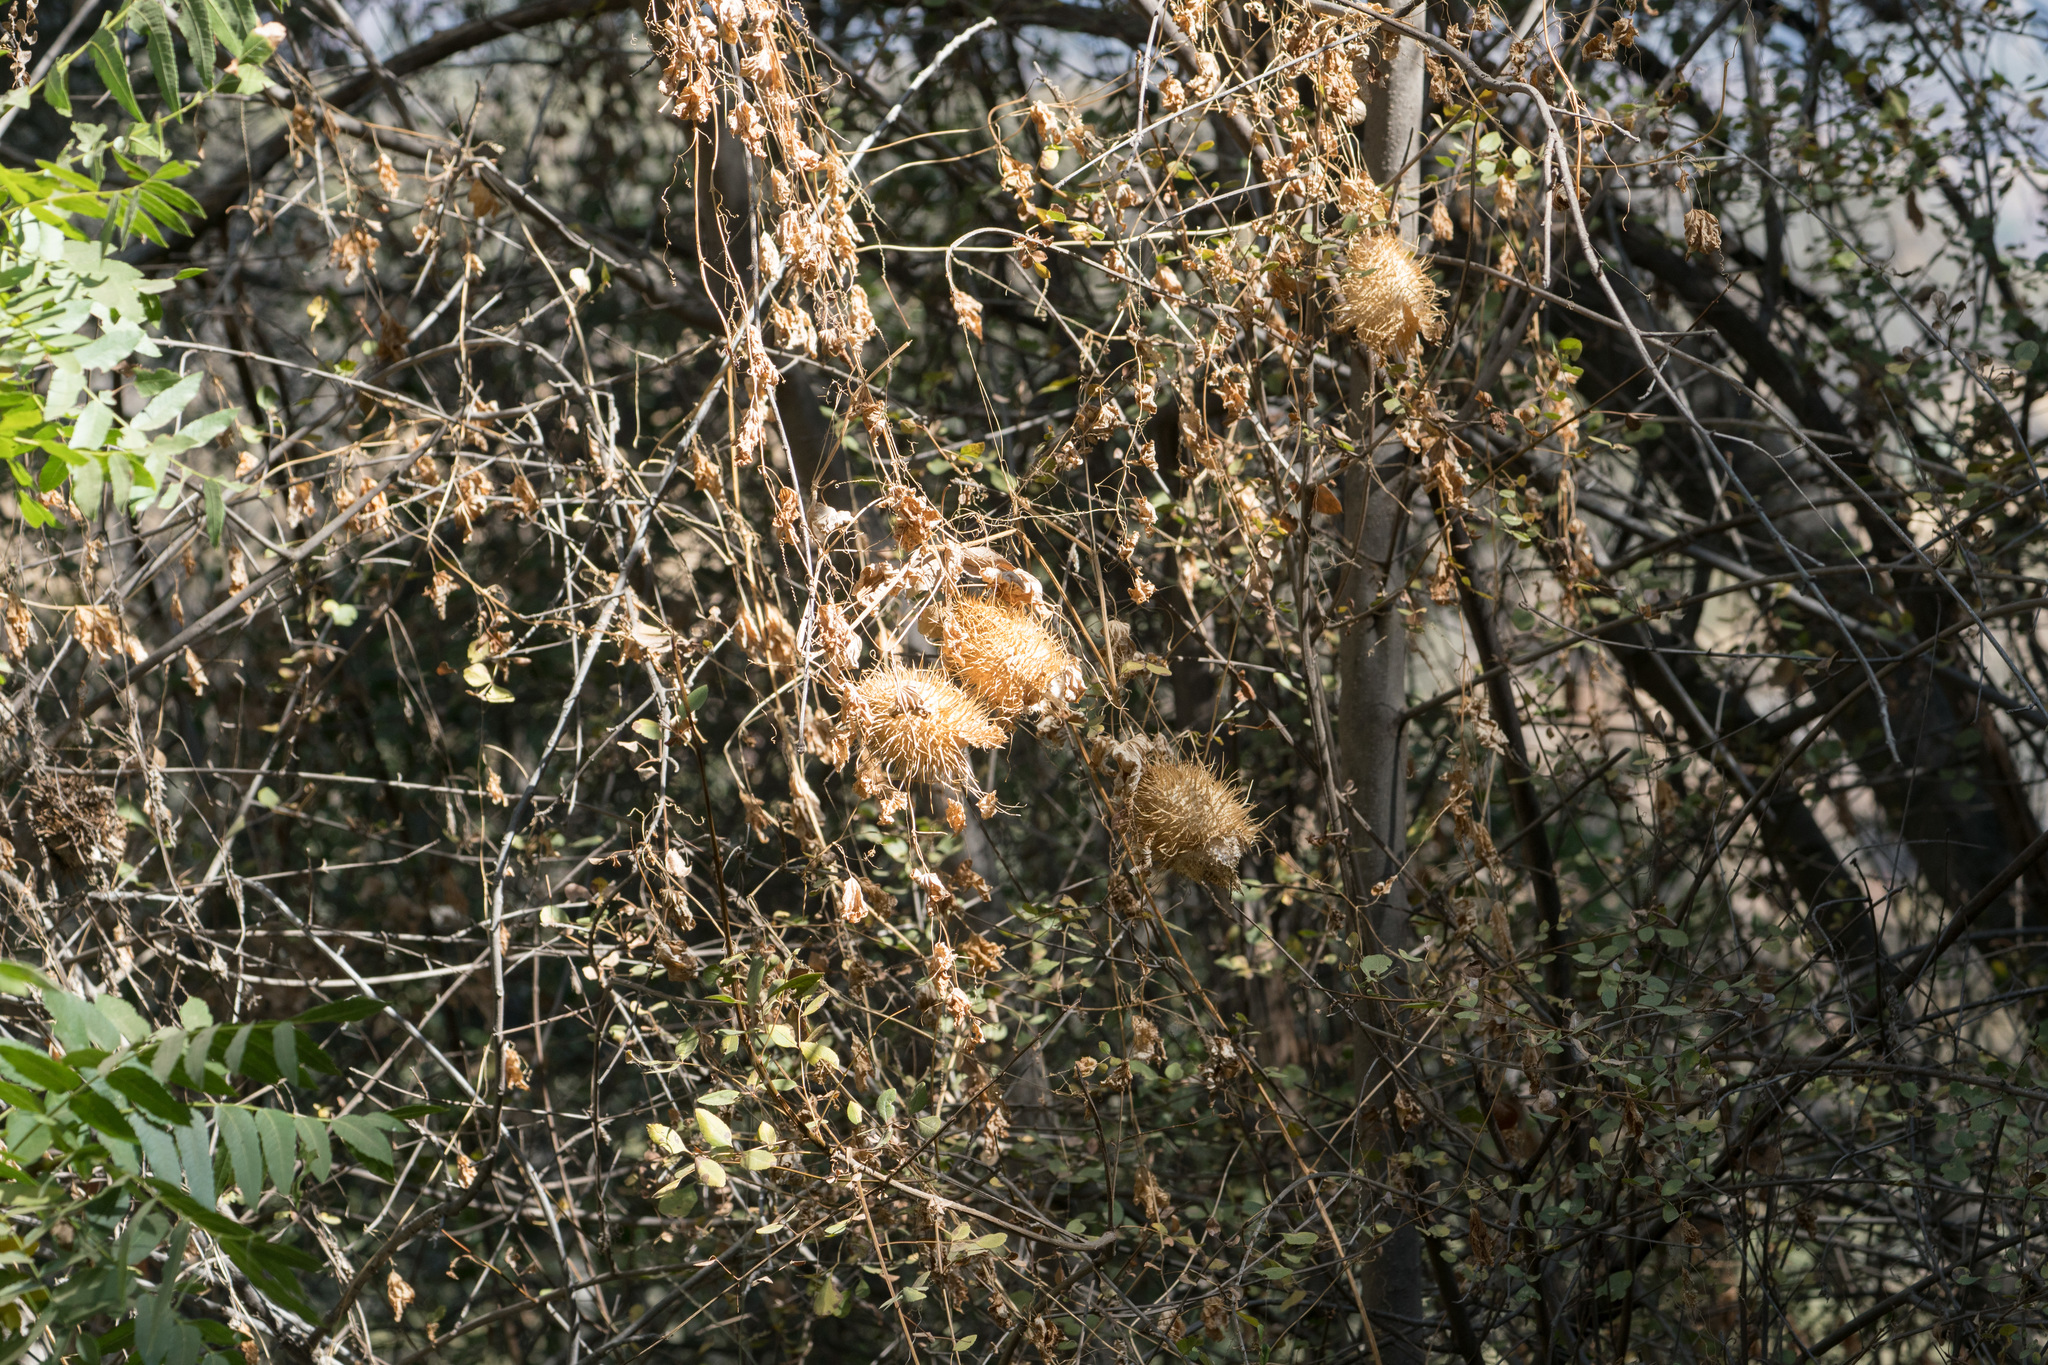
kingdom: Plantae
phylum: Tracheophyta
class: Magnoliopsida
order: Cucurbitales
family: Cucurbitaceae
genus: Marah
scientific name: Marah macrocarpa
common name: Cucamonga manroot
